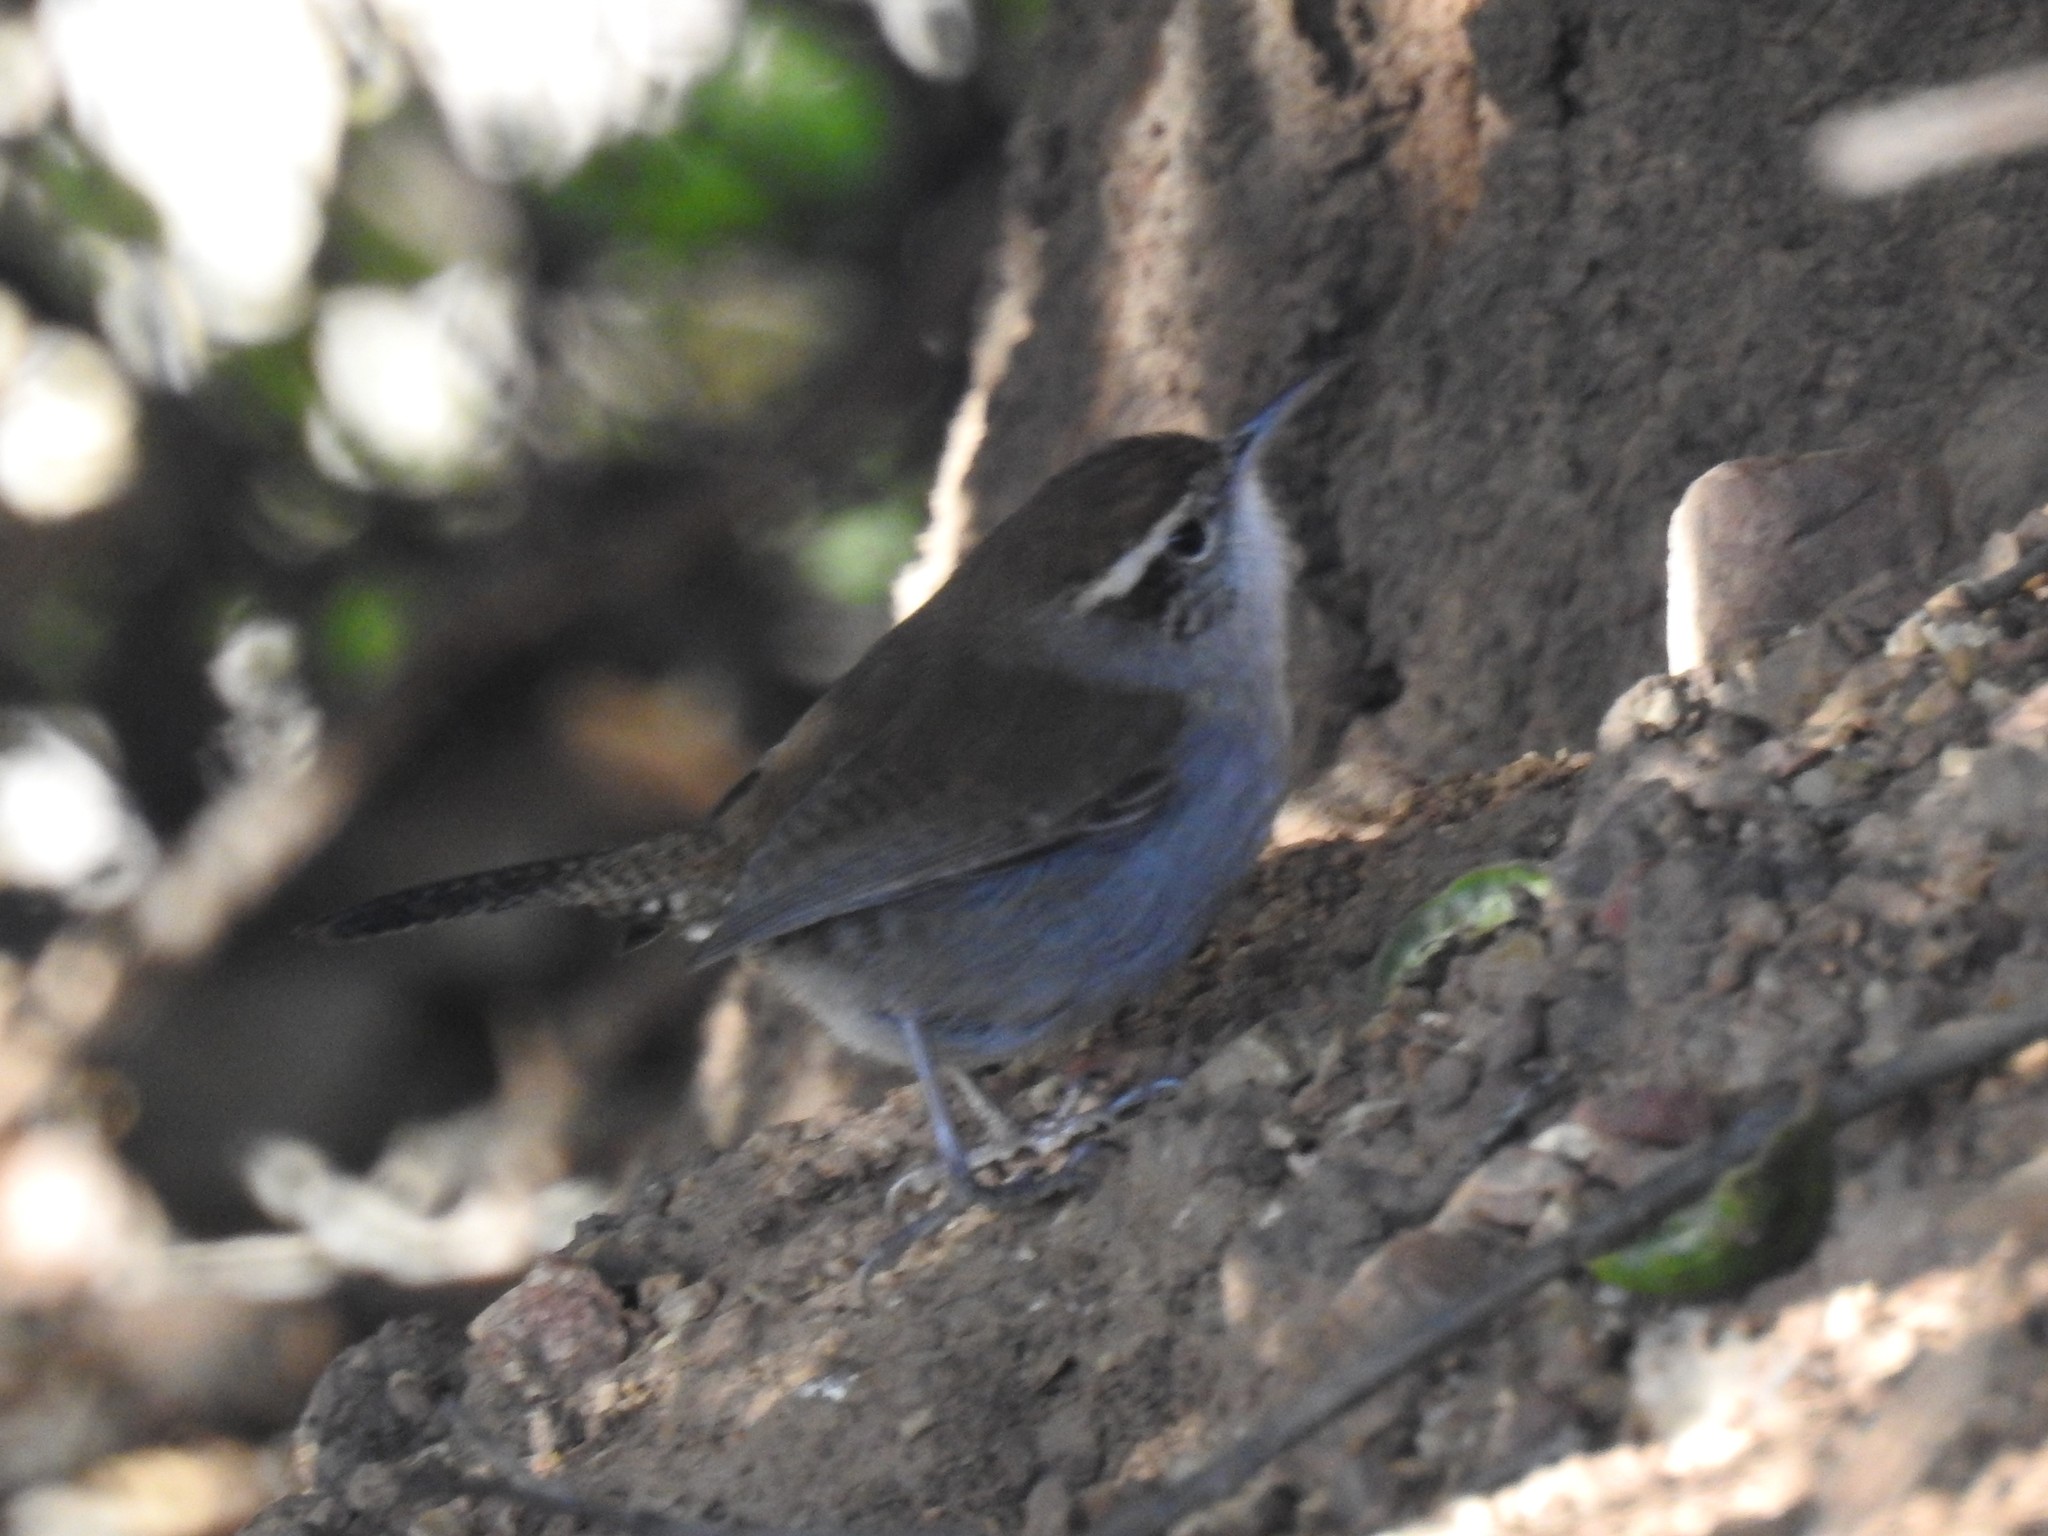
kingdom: Animalia
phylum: Chordata
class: Aves
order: Passeriformes
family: Troglodytidae
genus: Thryomanes
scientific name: Thryomanes bewickii
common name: Bewick's wren
